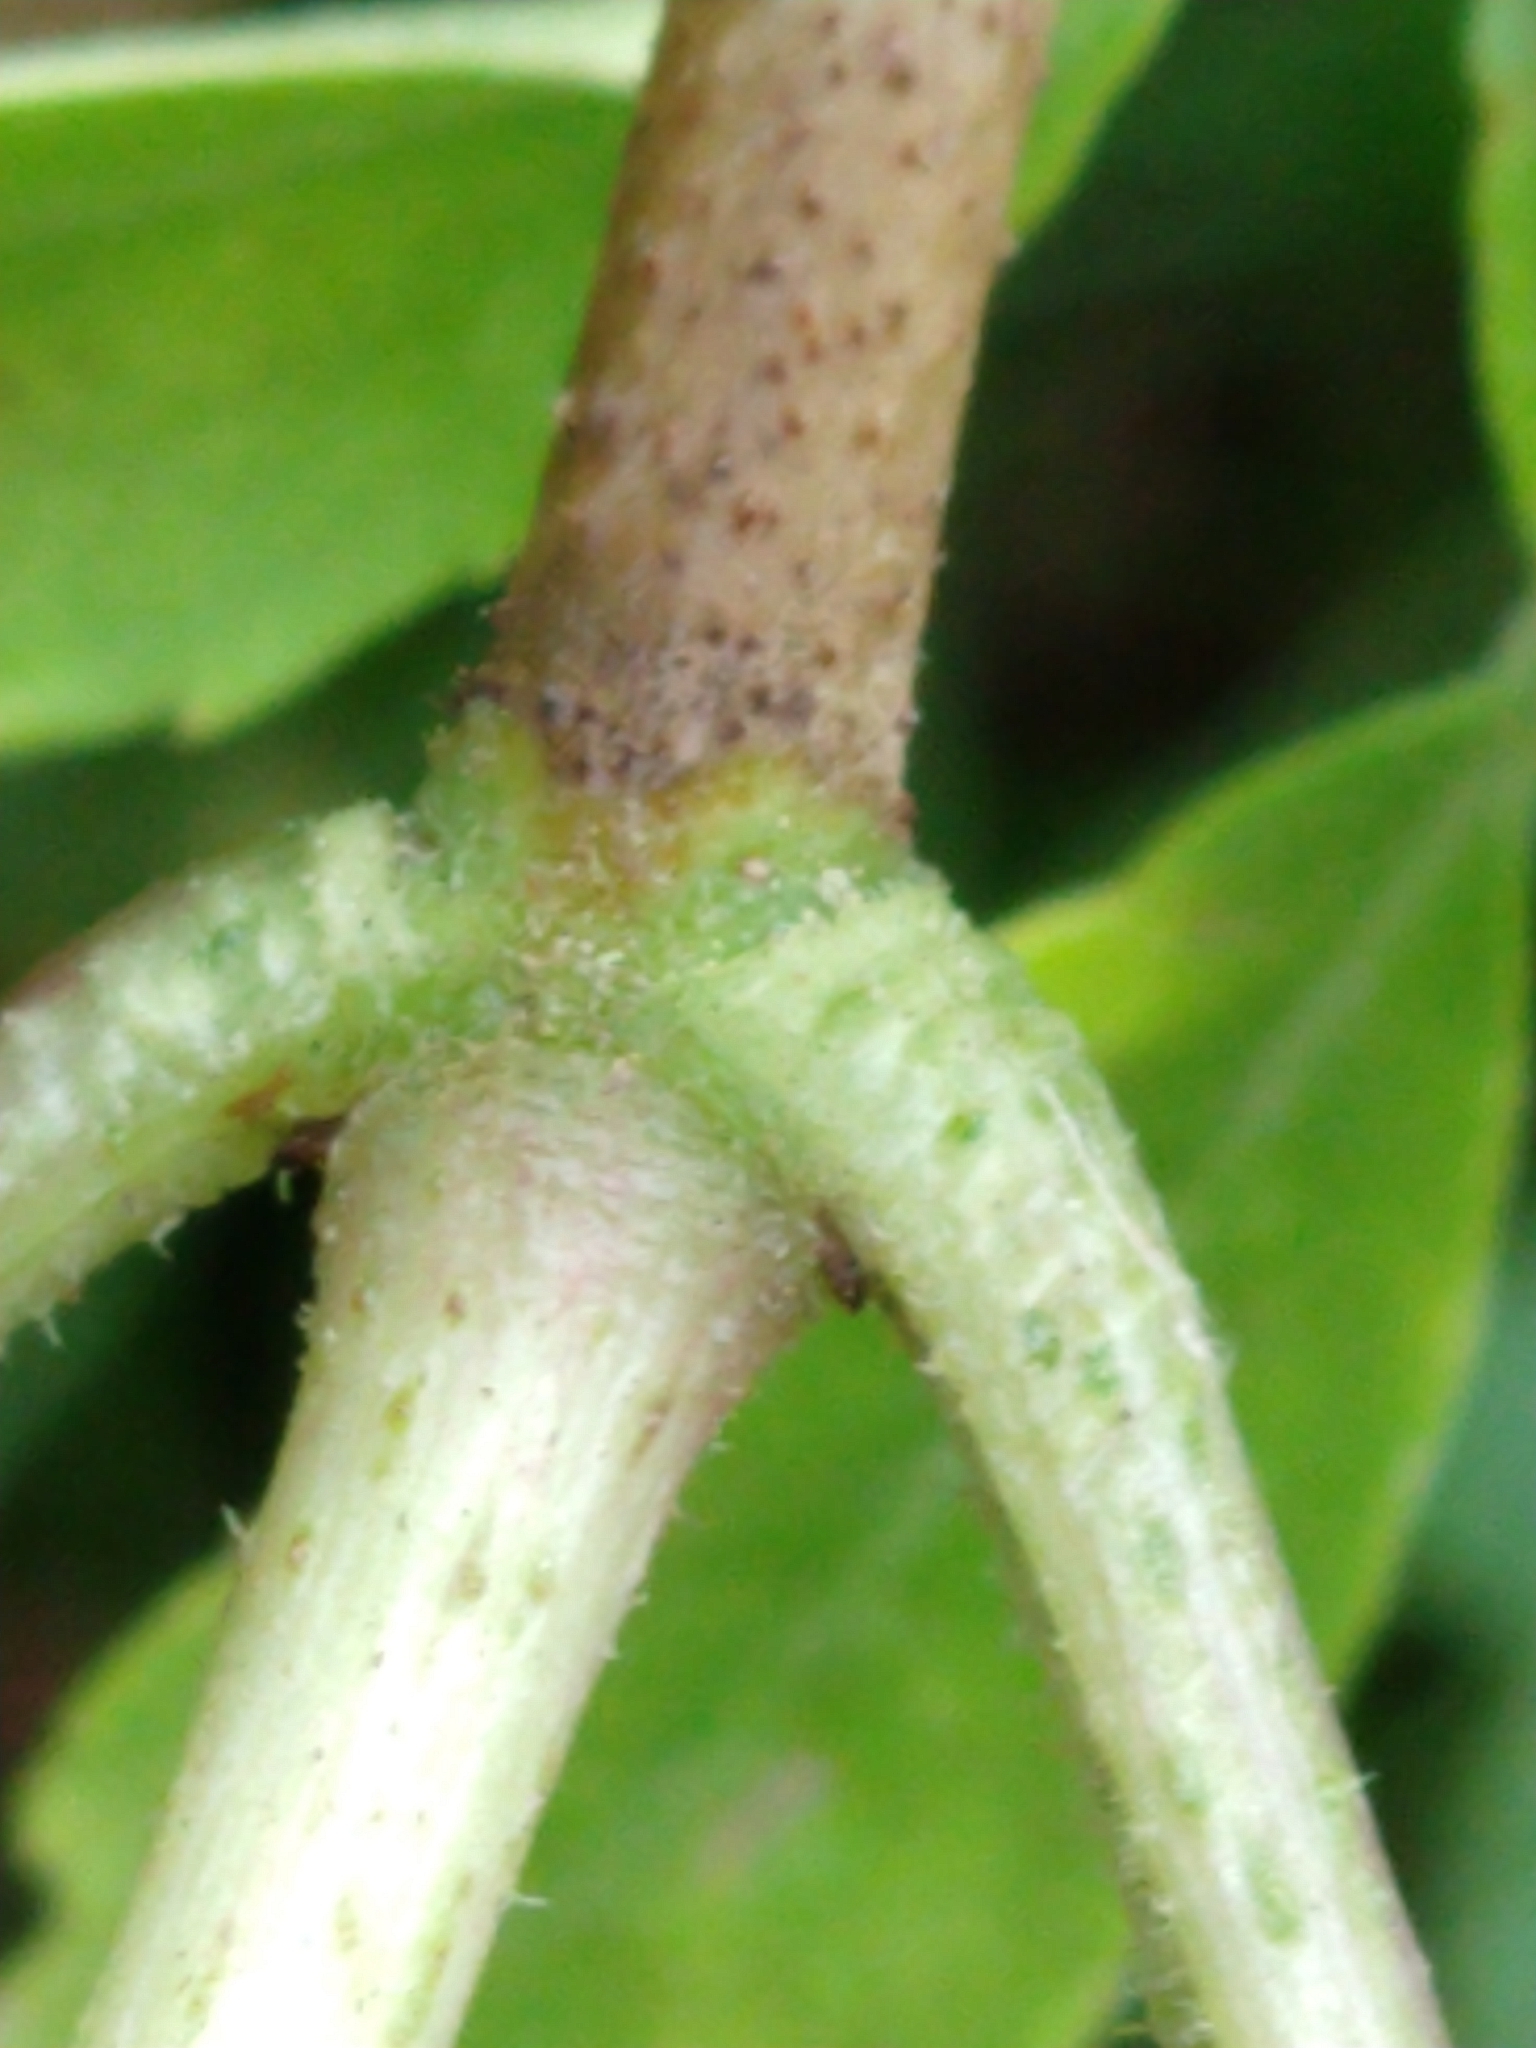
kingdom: Plantae
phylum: Tracheophyta
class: Magnoliopsida
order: Dipsacales
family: Viburnaceae
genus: Sambucus
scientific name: Sambucus nigra
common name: Elder
